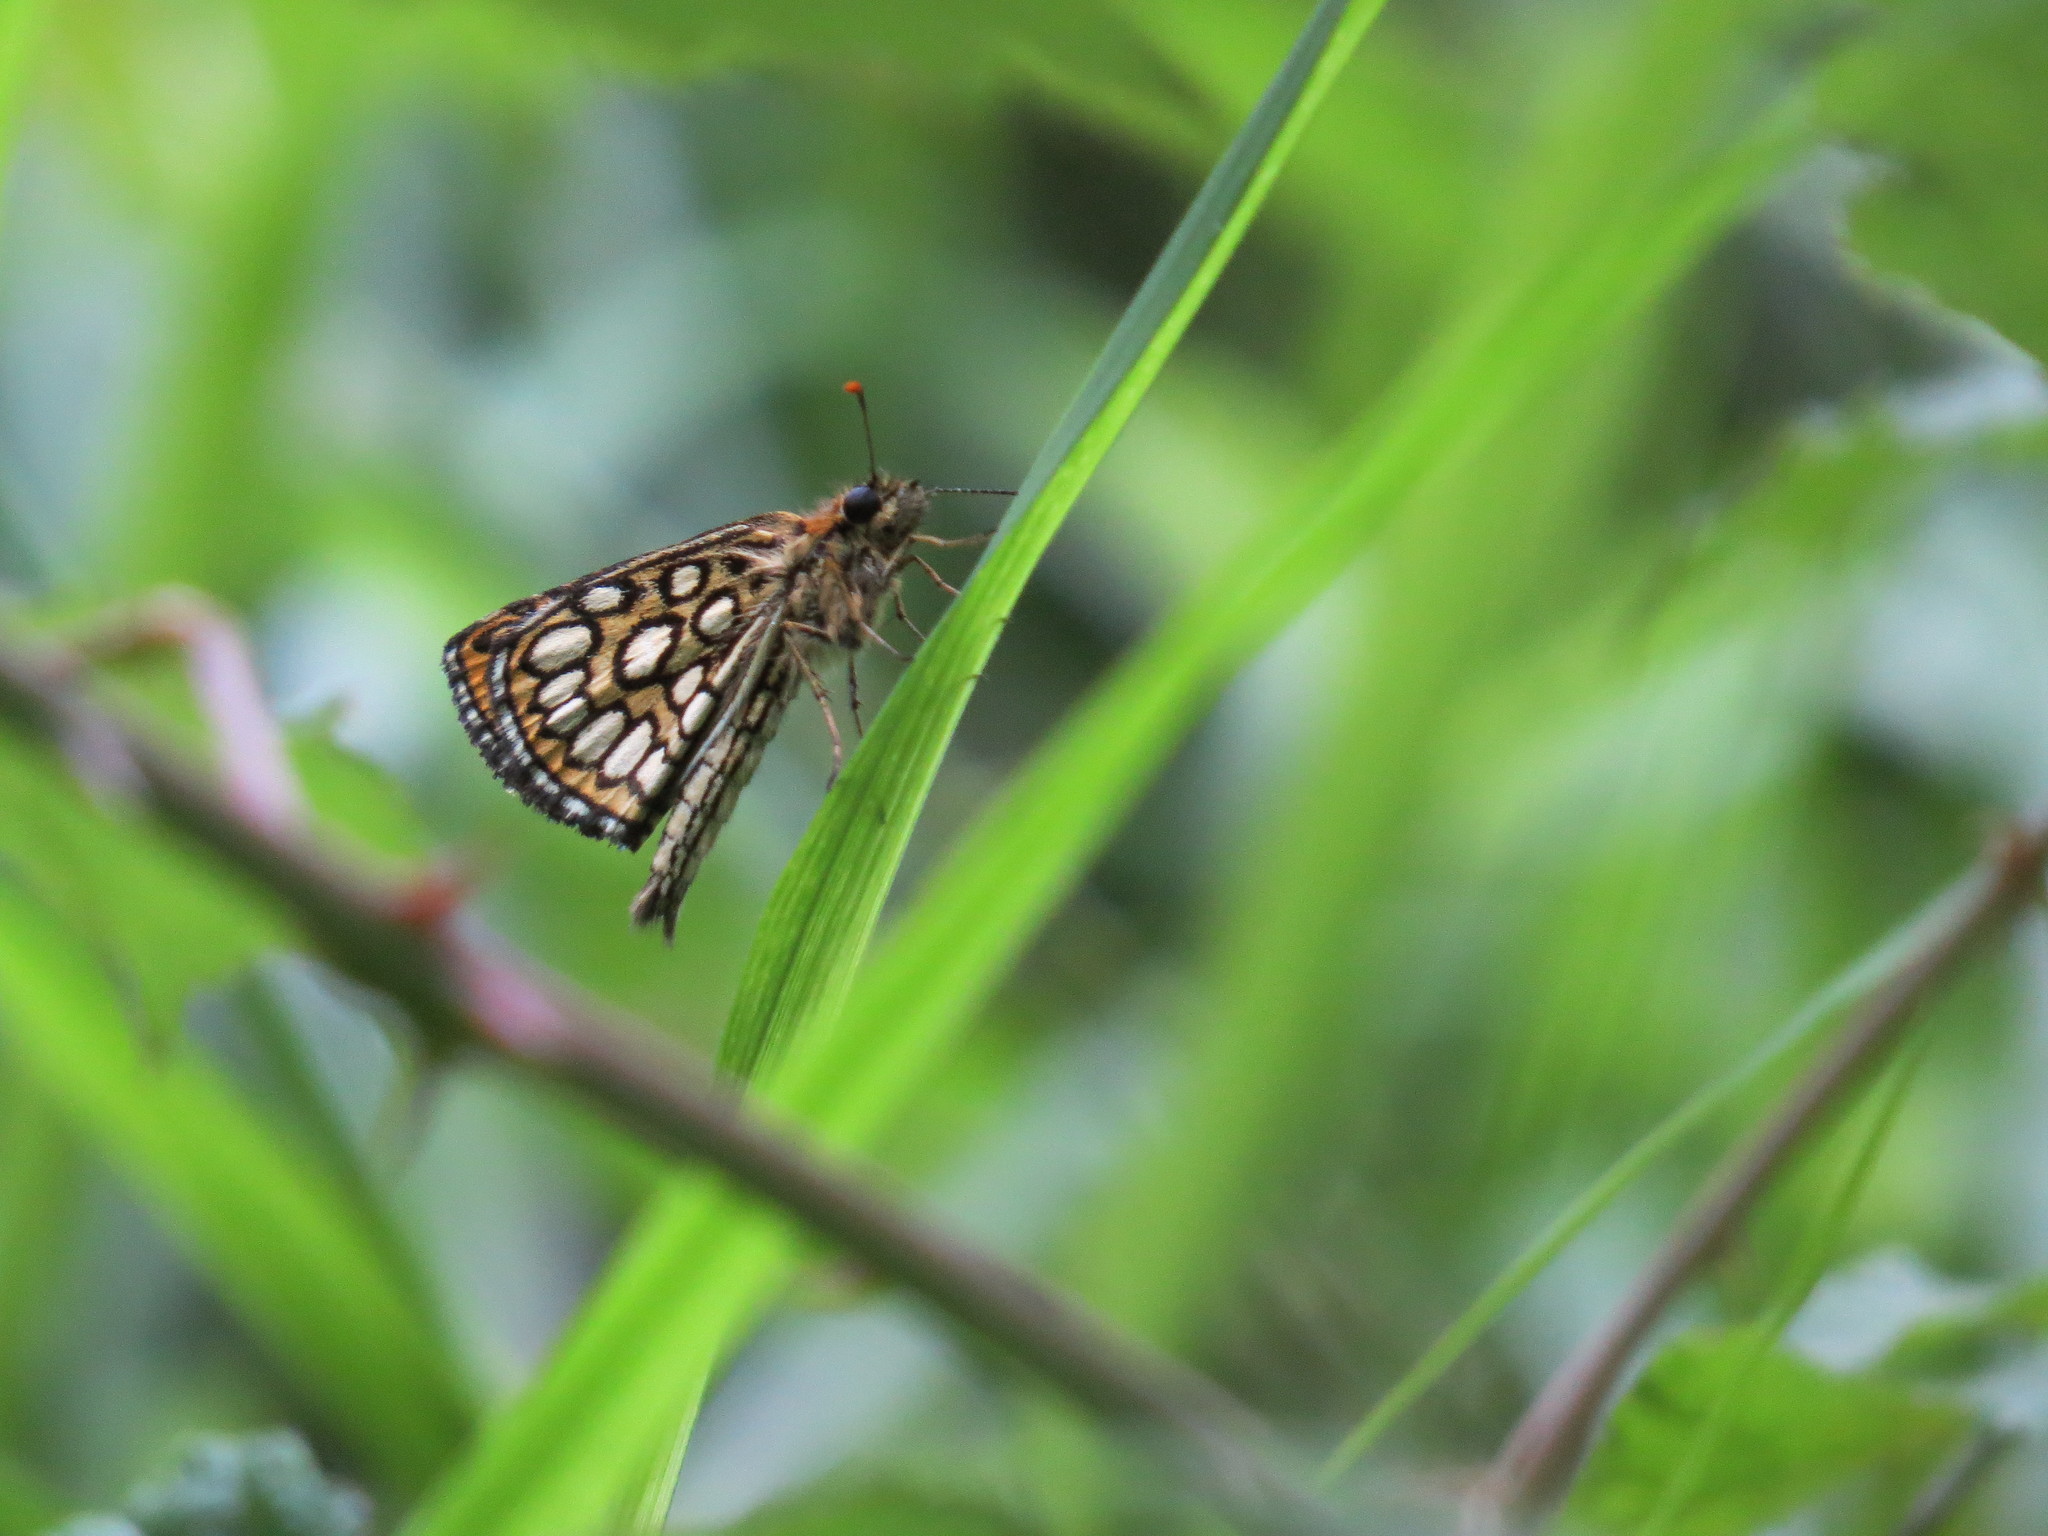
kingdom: Animalia
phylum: Arthropoda
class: Insecta
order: Lepidoptera
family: Hesperiidae
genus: Heteropterus
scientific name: Heteropterus morpheus
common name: Large chequered skipper
